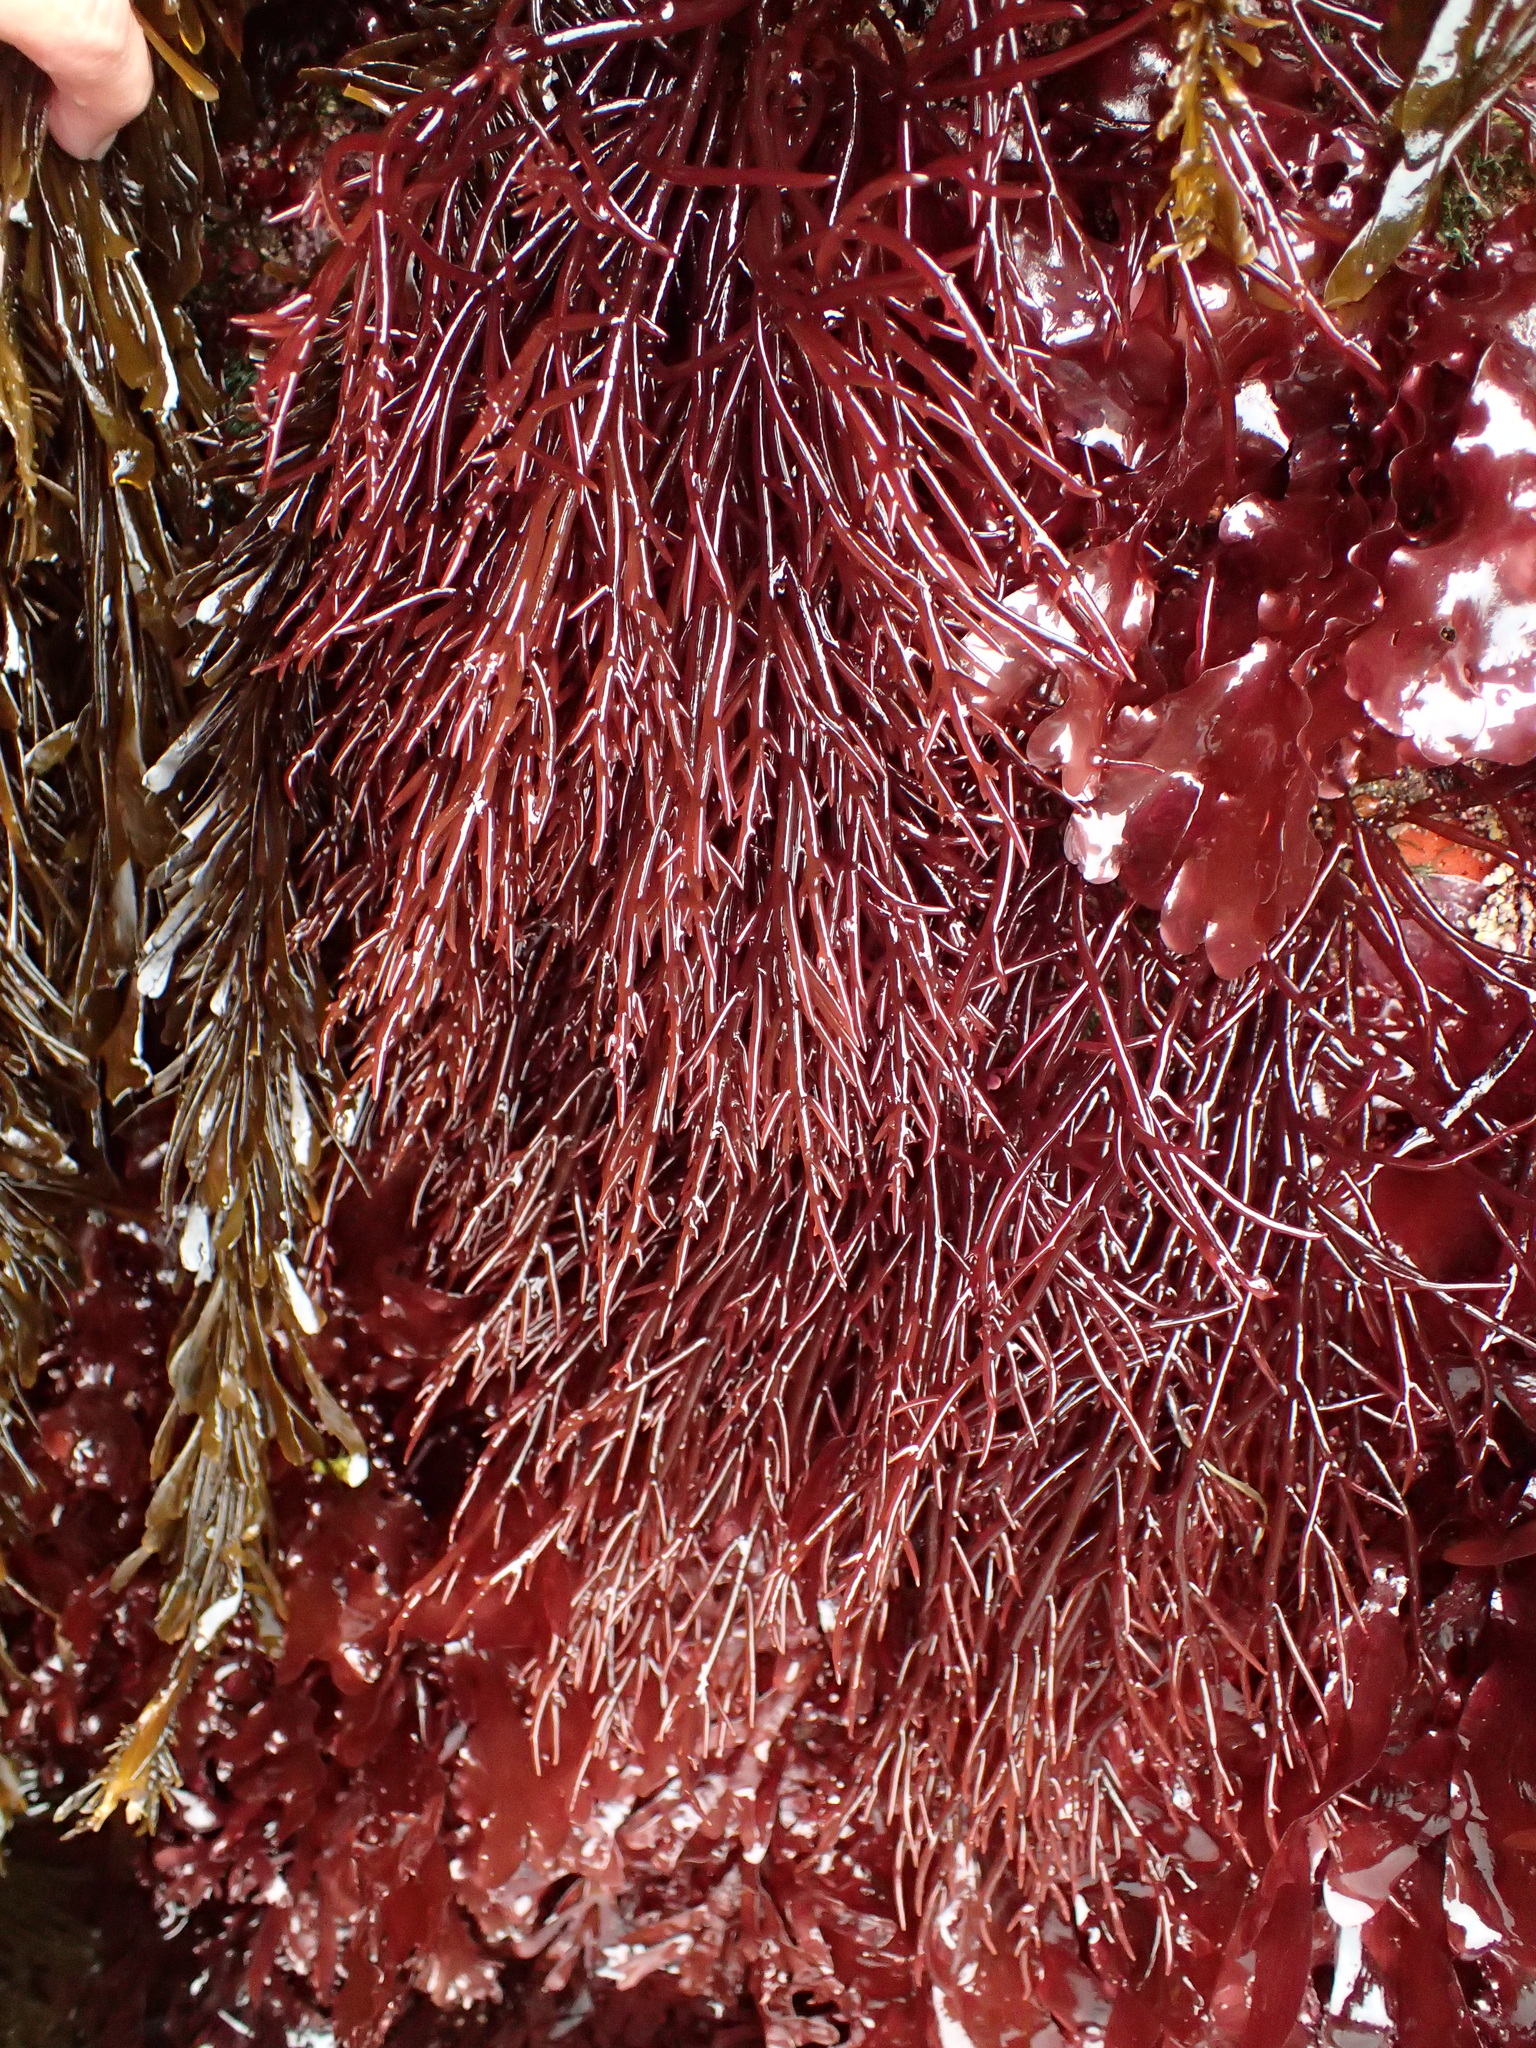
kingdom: Plantae
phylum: Rhodophyta
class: Florideophyceae
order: Gigartinales
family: Solieriaceae
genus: Sarcodiotheca
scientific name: Sarcodiotheca gaudichaudii
